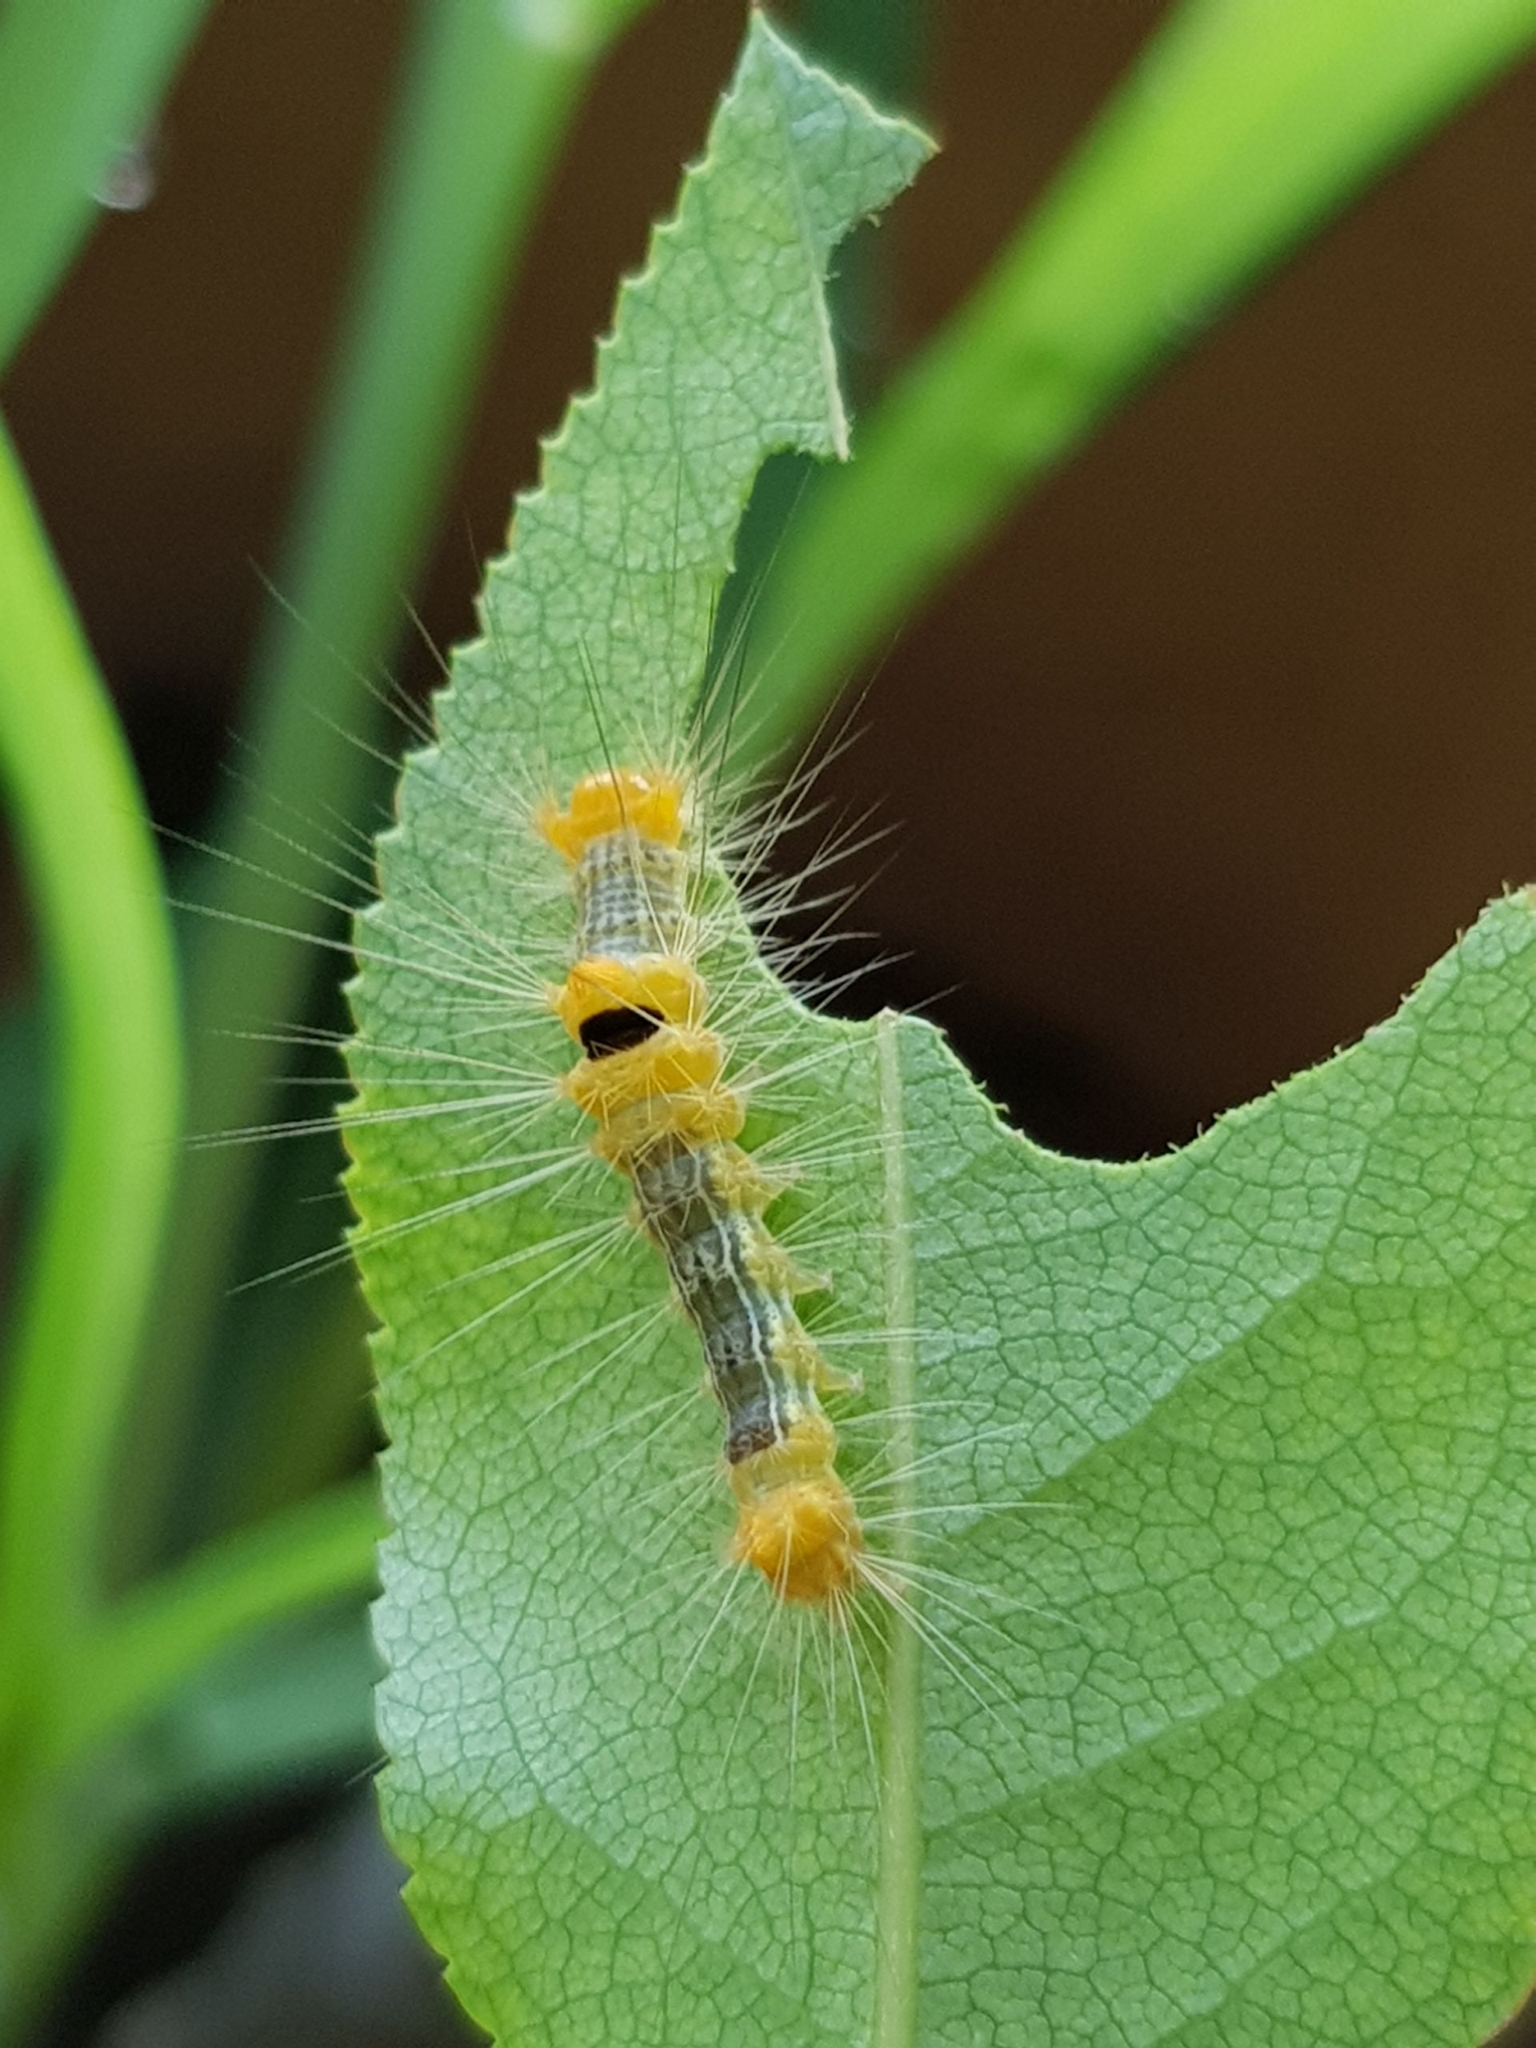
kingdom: Animalia
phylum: Arthropoda
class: Insecta
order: Lepidoptera
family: Erebidae
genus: Calliteara
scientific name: Calliteara horsfieldii
